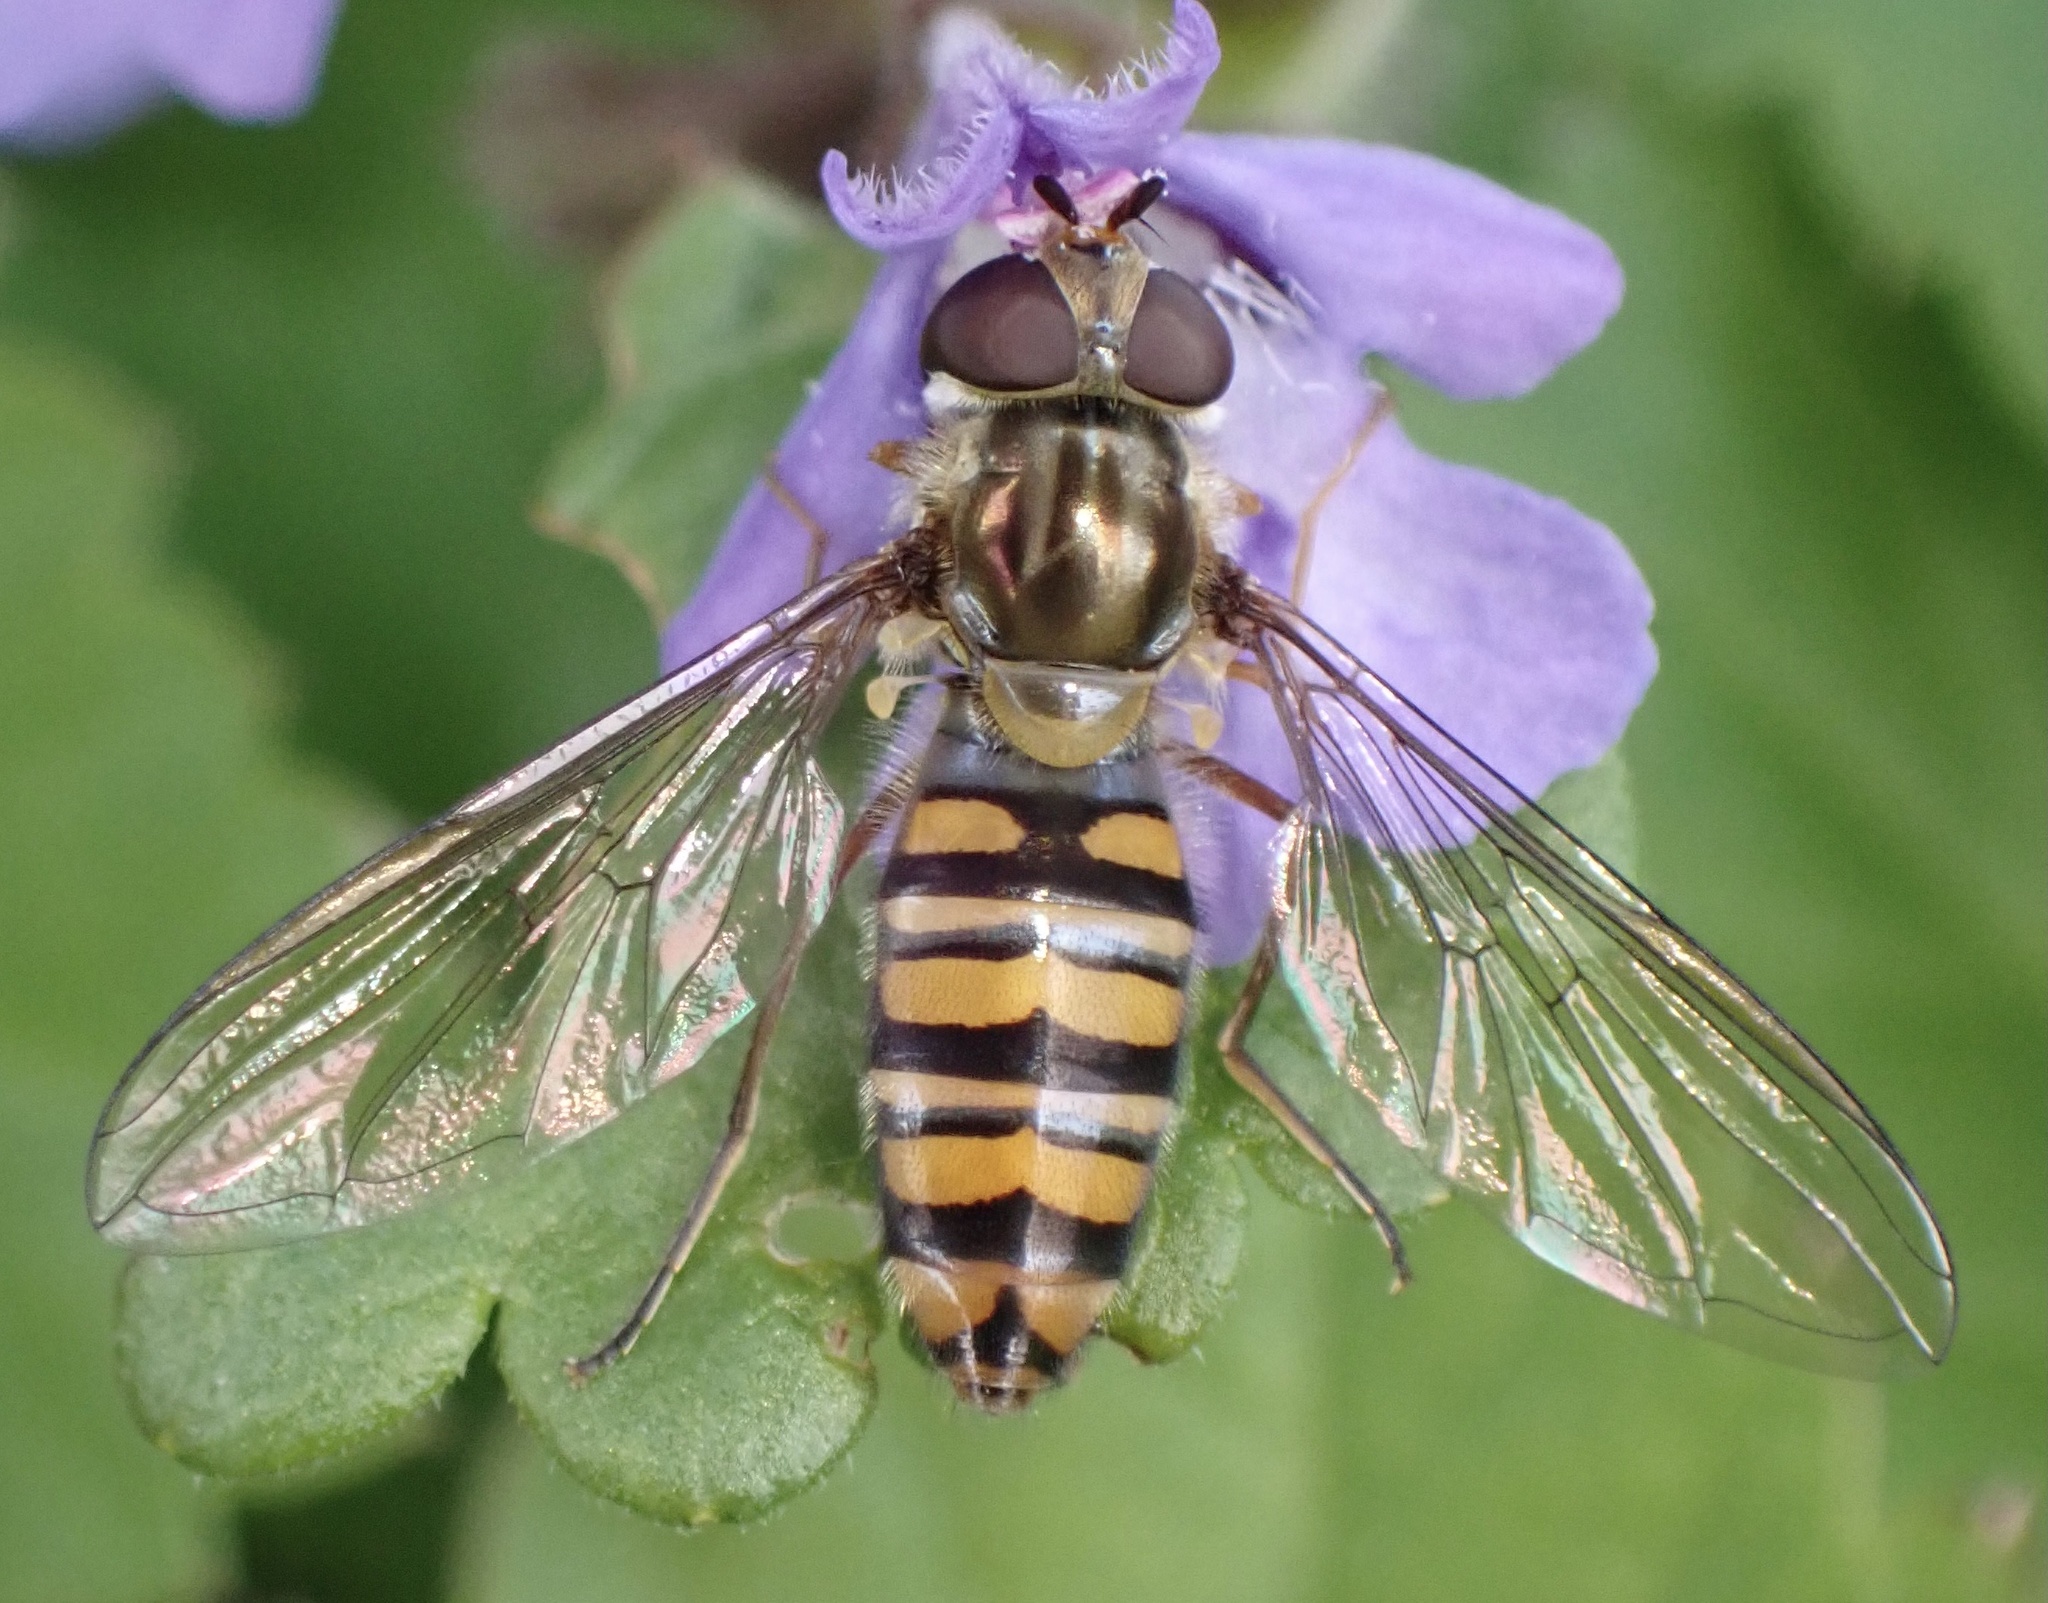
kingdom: Animalia
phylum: Arthropoda
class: Insecta
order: Diptera
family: Syrphidae
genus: Episyrphus
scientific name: Episyrphus balteatus
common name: Marmalade hoverfly
